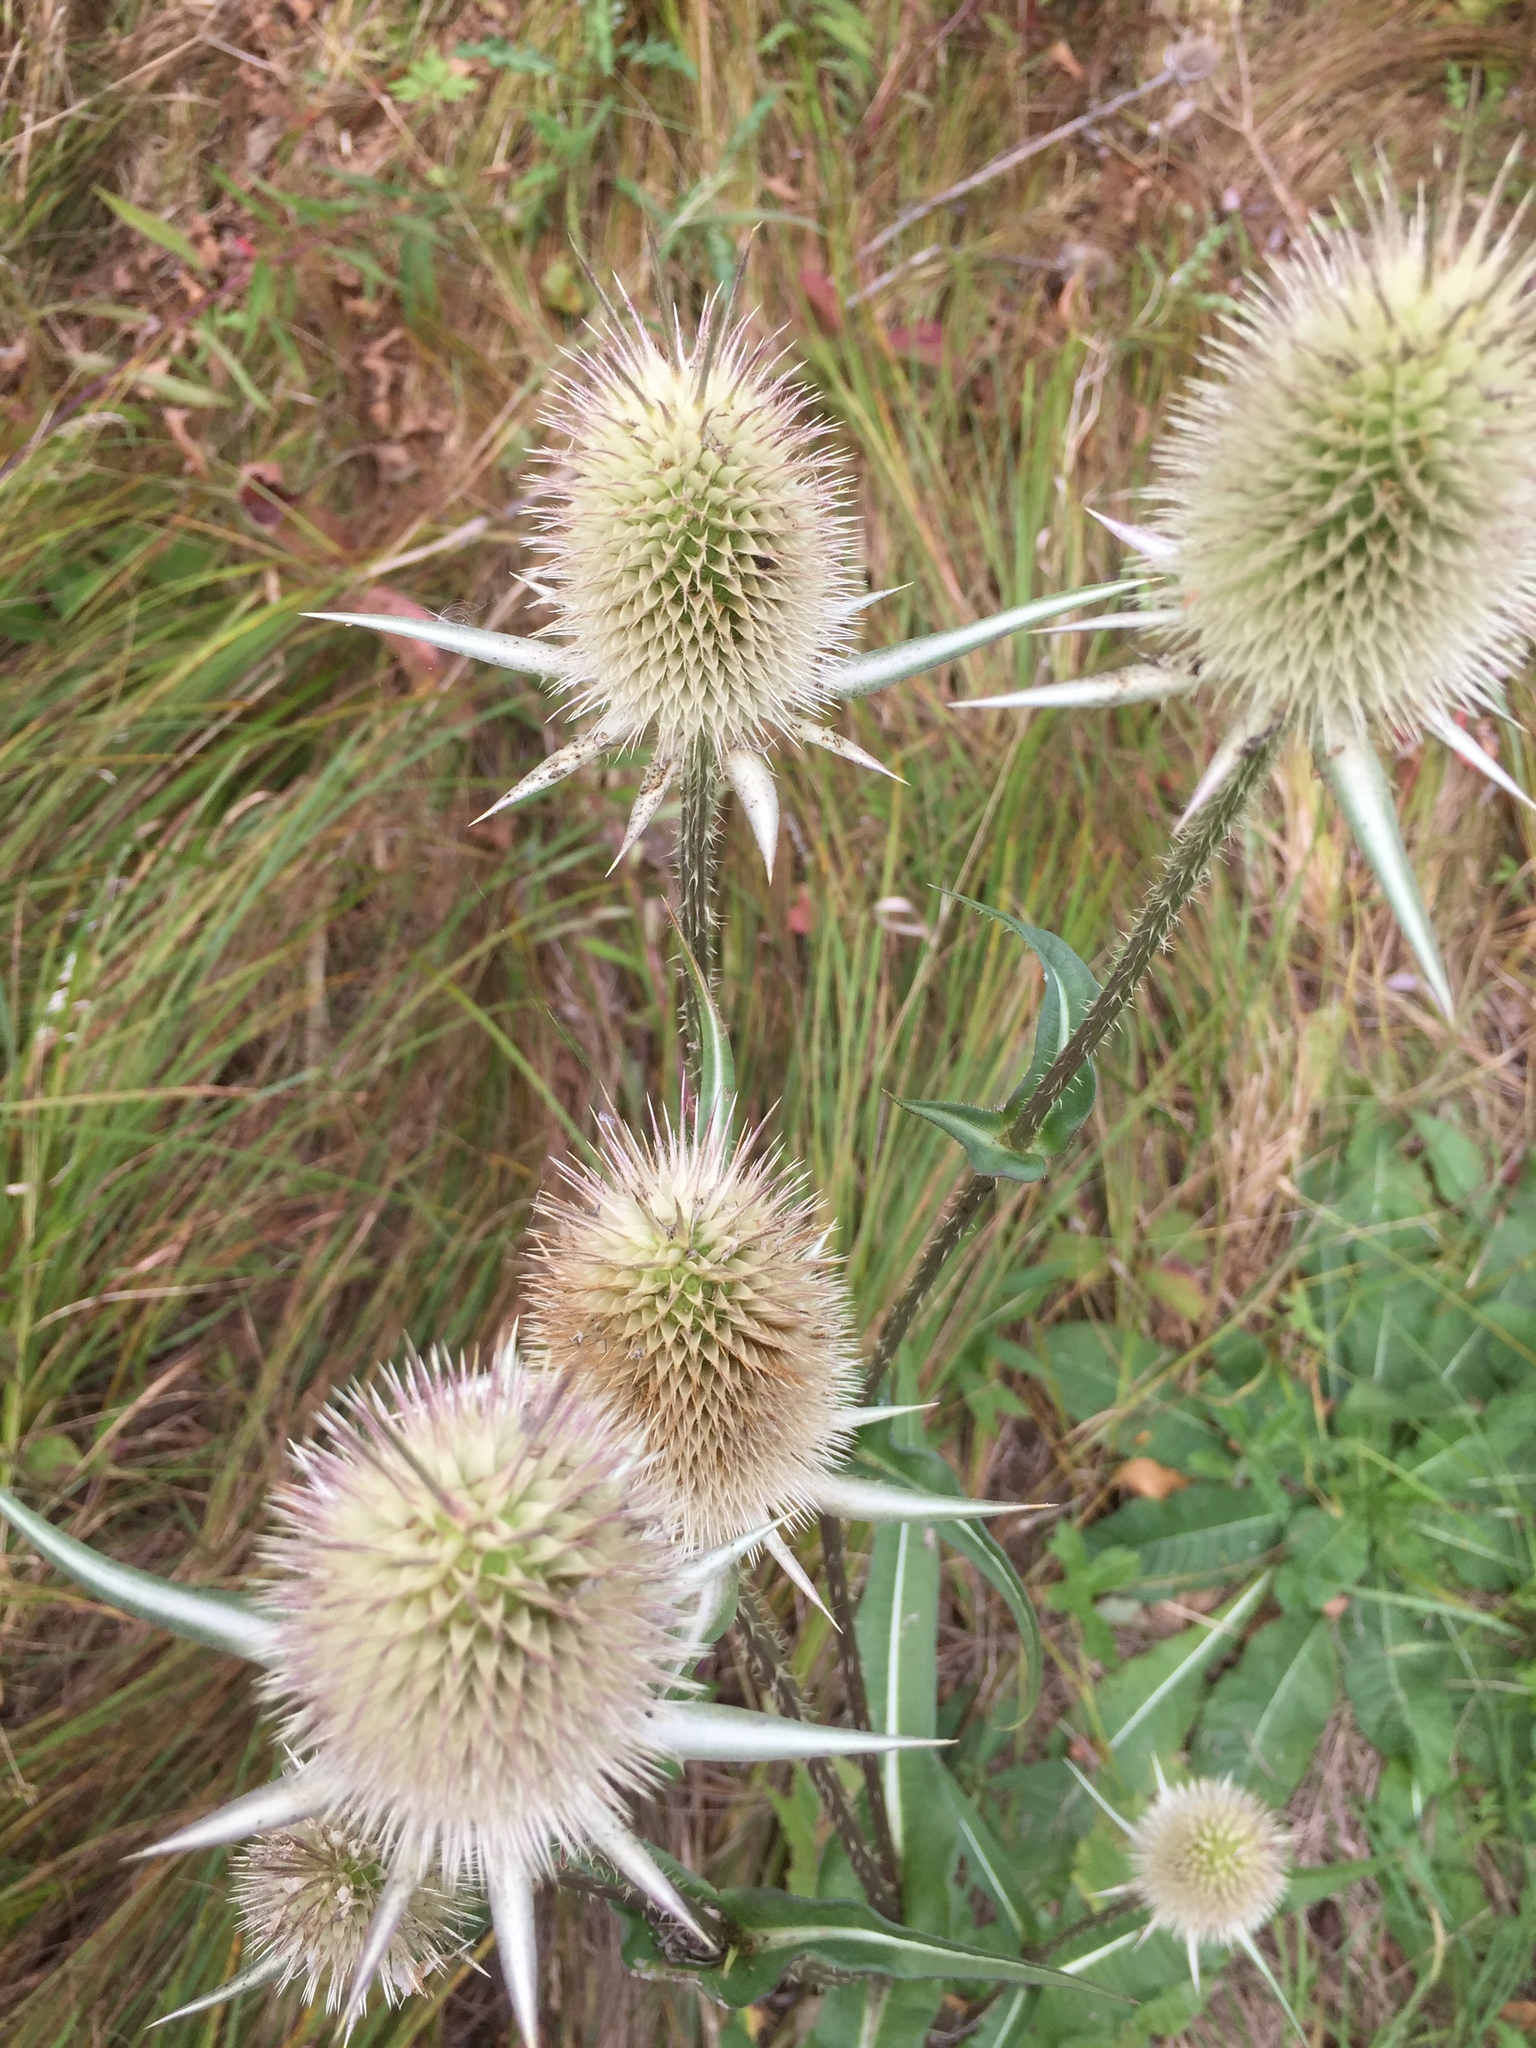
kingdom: Plantae
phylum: Tracheophyta
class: Magnoliopsida
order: Dipsacales
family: Caprifoliaceae
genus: Dipsacus
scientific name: Dipsacus laciniatus
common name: Cut-leaved teasel
